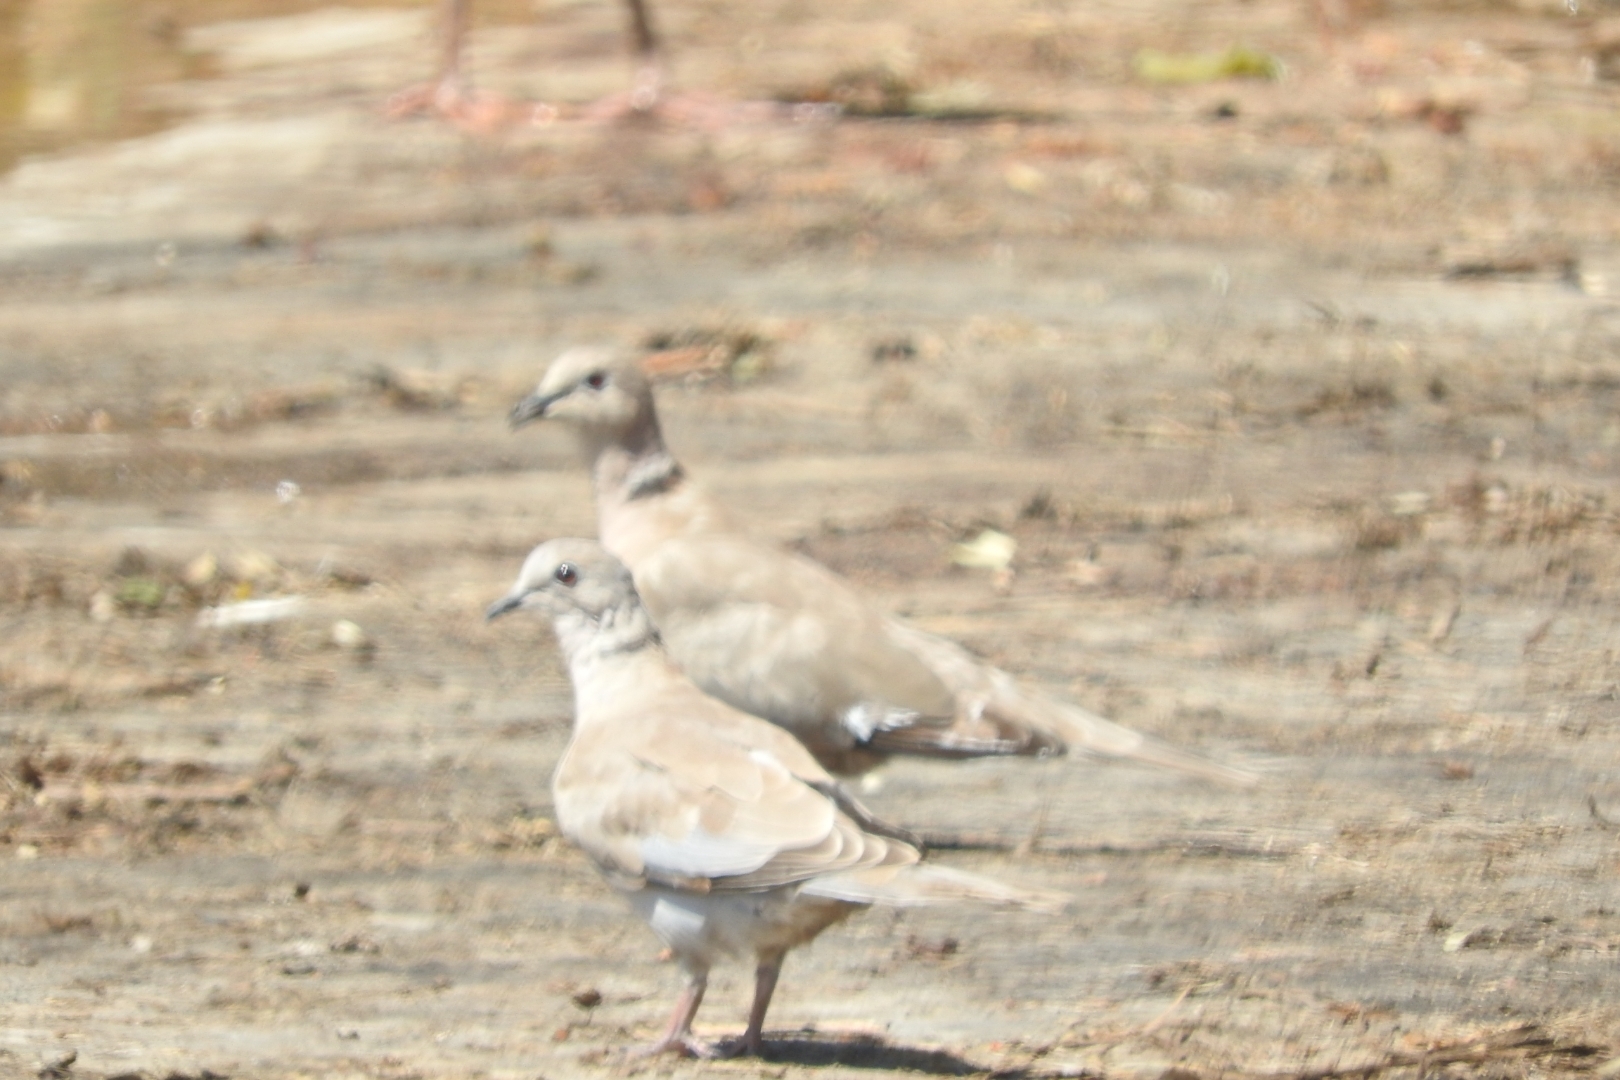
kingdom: Animalia
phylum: Chordata
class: Aves
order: Columbiformes
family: Columbidae
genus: Streptopelia
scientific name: Streptopelia decaocto
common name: Eurasian collared dove
